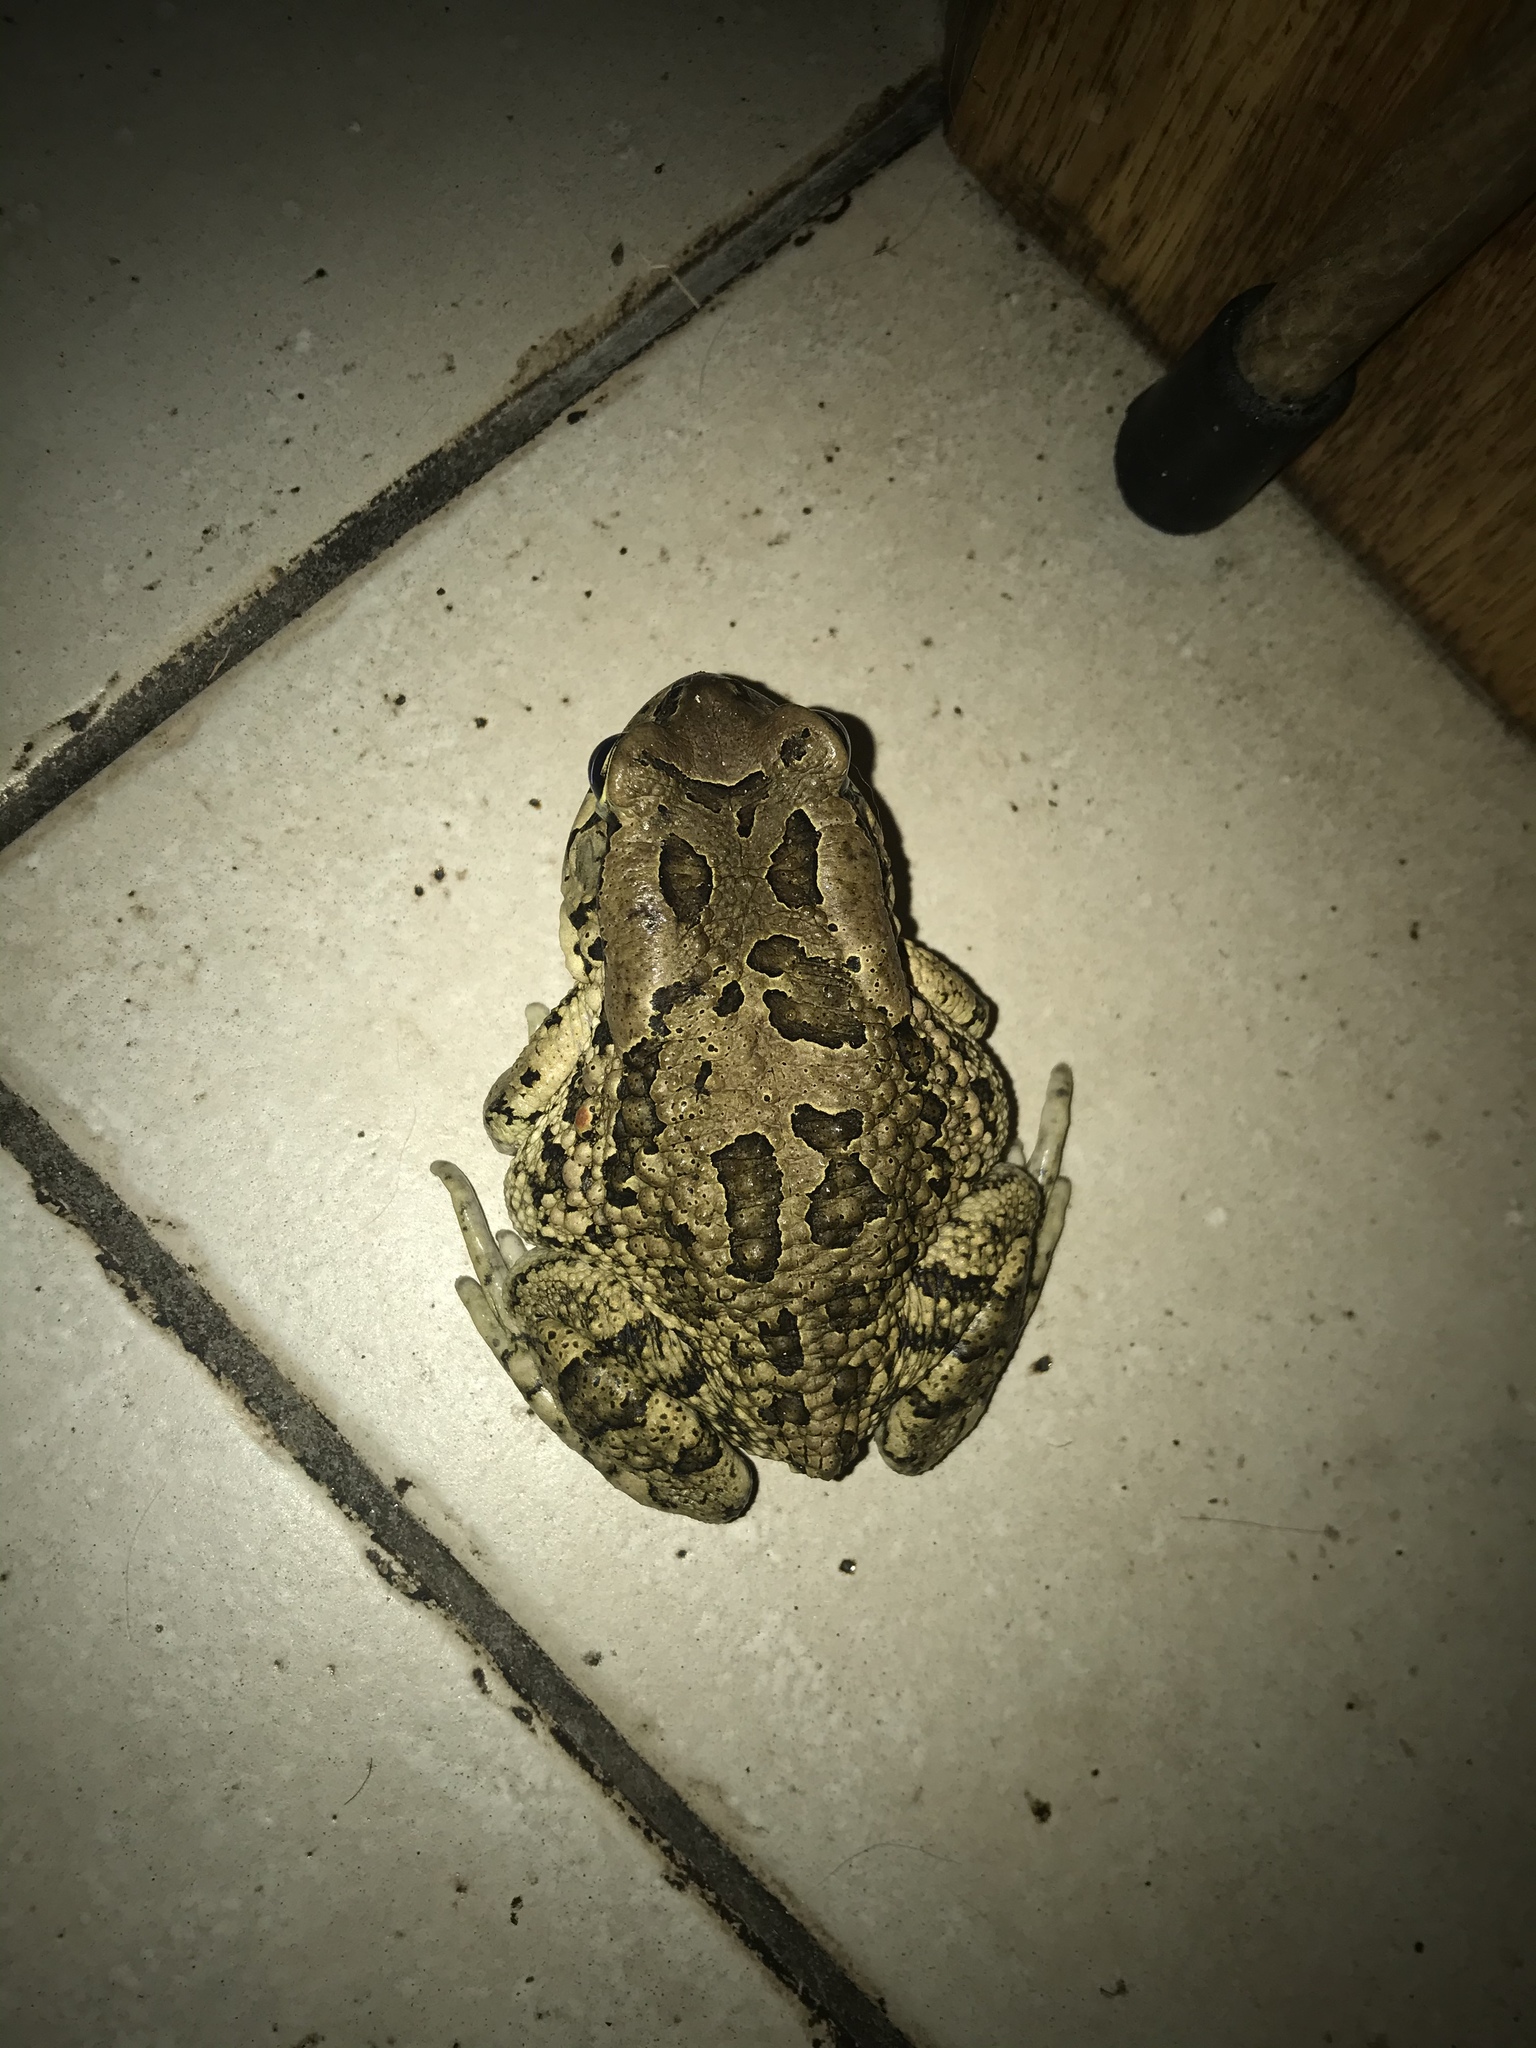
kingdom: Animalia
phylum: Chordata
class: Amphibia
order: Anura
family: Bufonidae
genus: Sclerophrys
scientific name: Sclerophrys capensis
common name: Ranger’s toad
